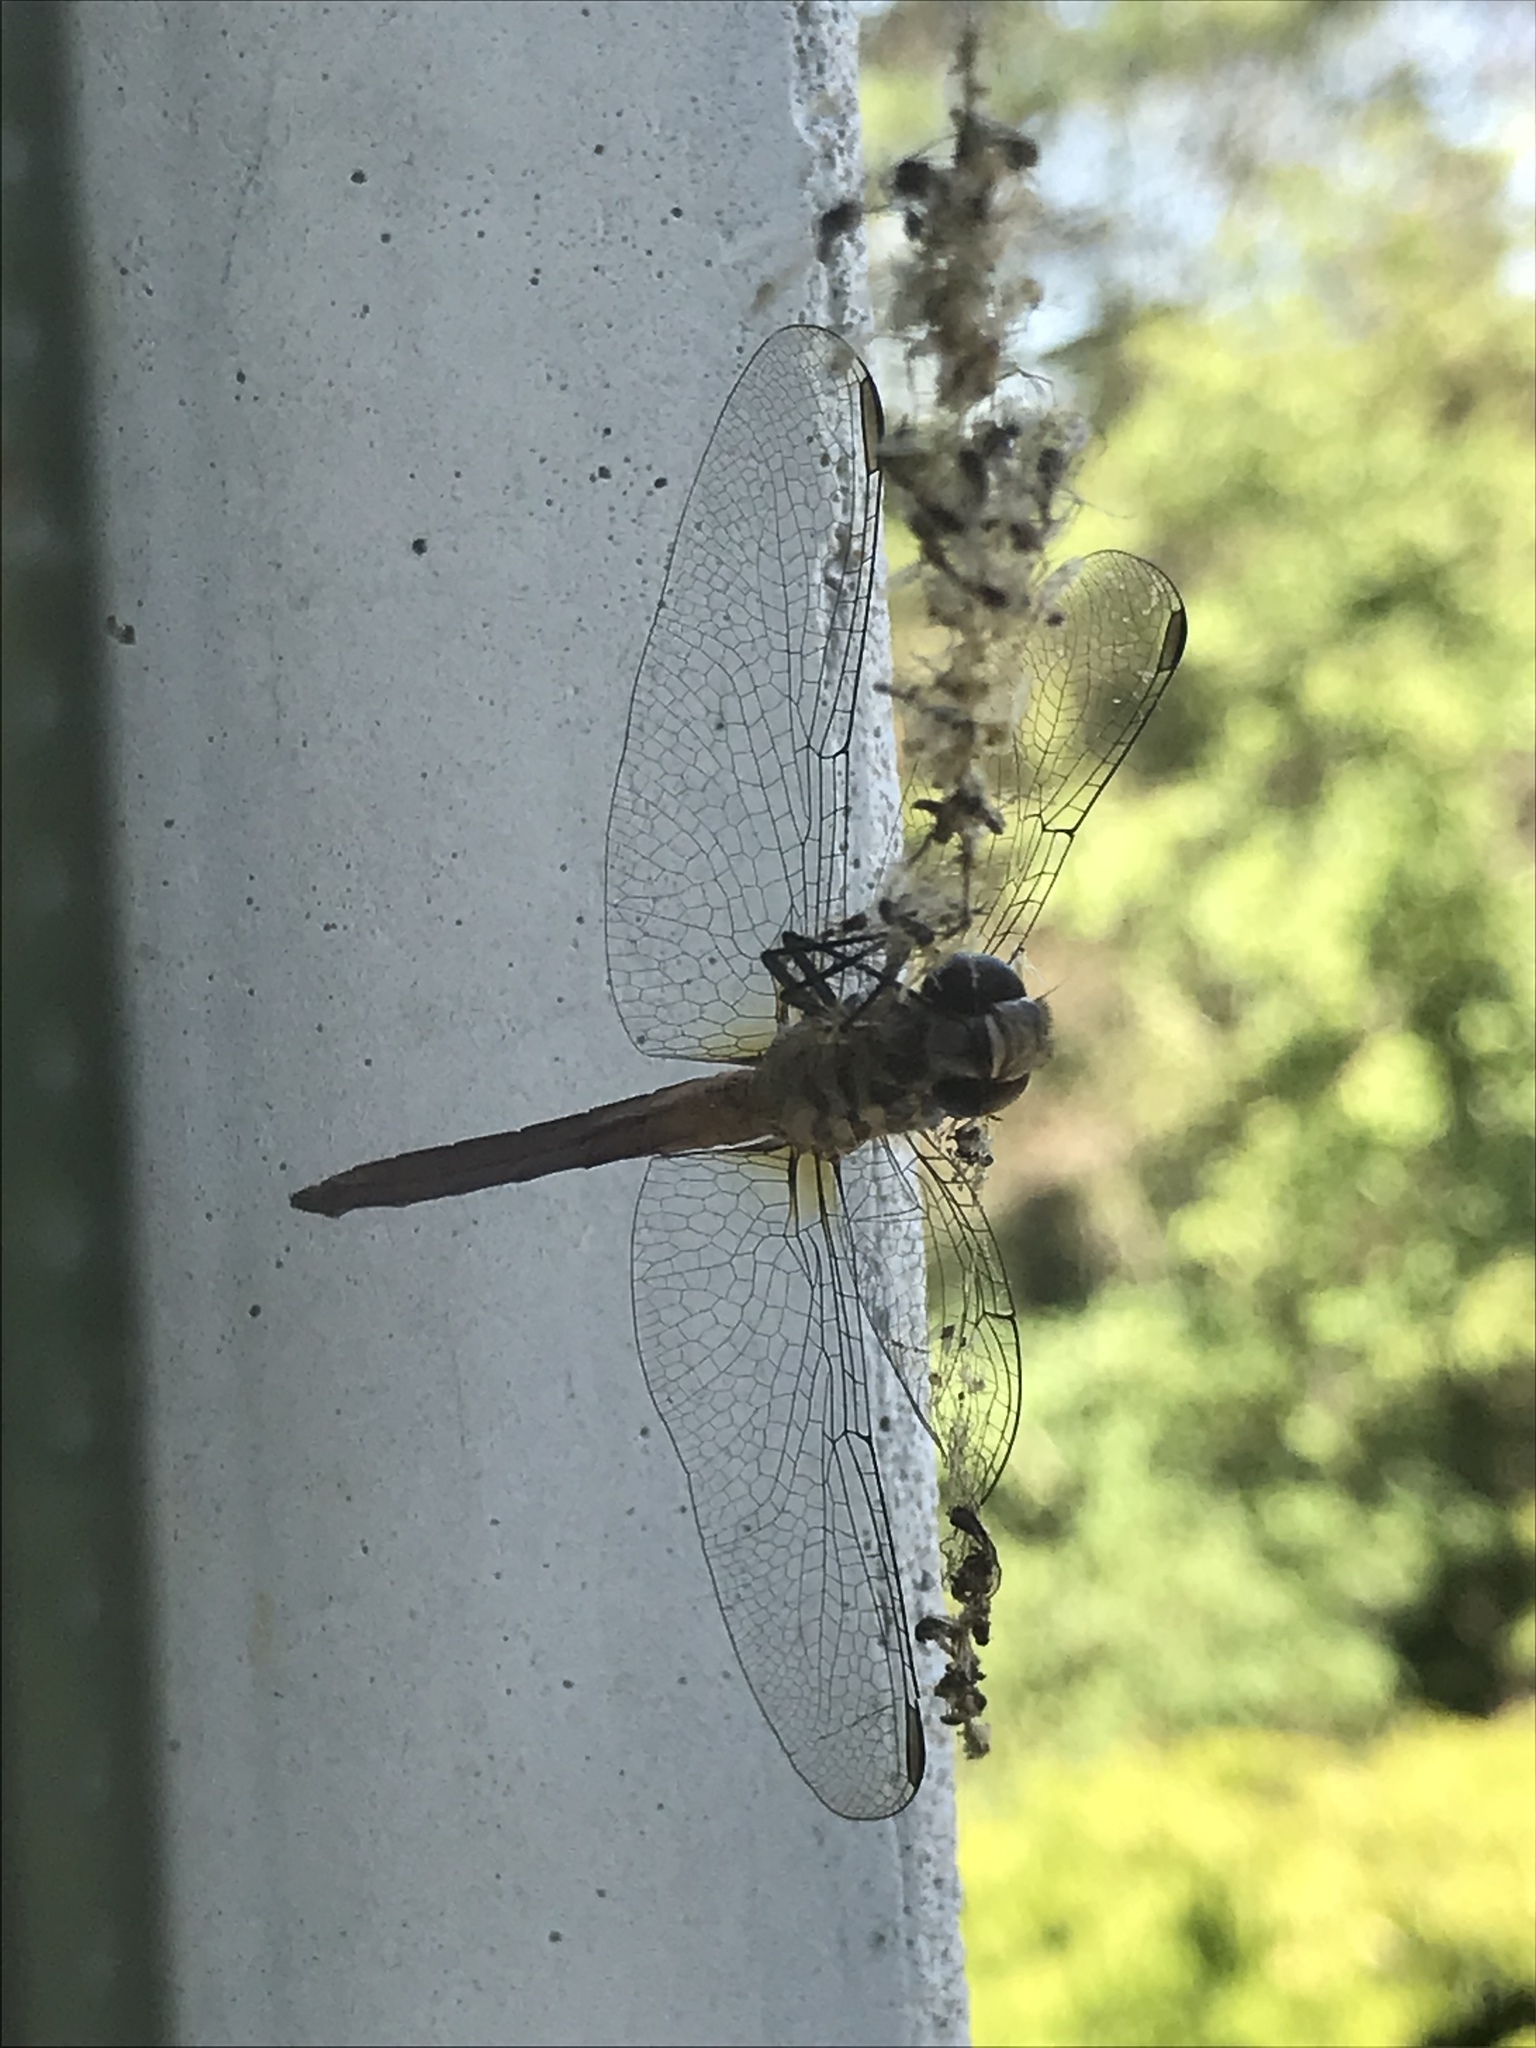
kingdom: Animalia
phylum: Arthropoda
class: Insecta
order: Odonata
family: Libellulidae
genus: Pachydiplax
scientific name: Pachydiplax longipennis
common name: Blue dasher
